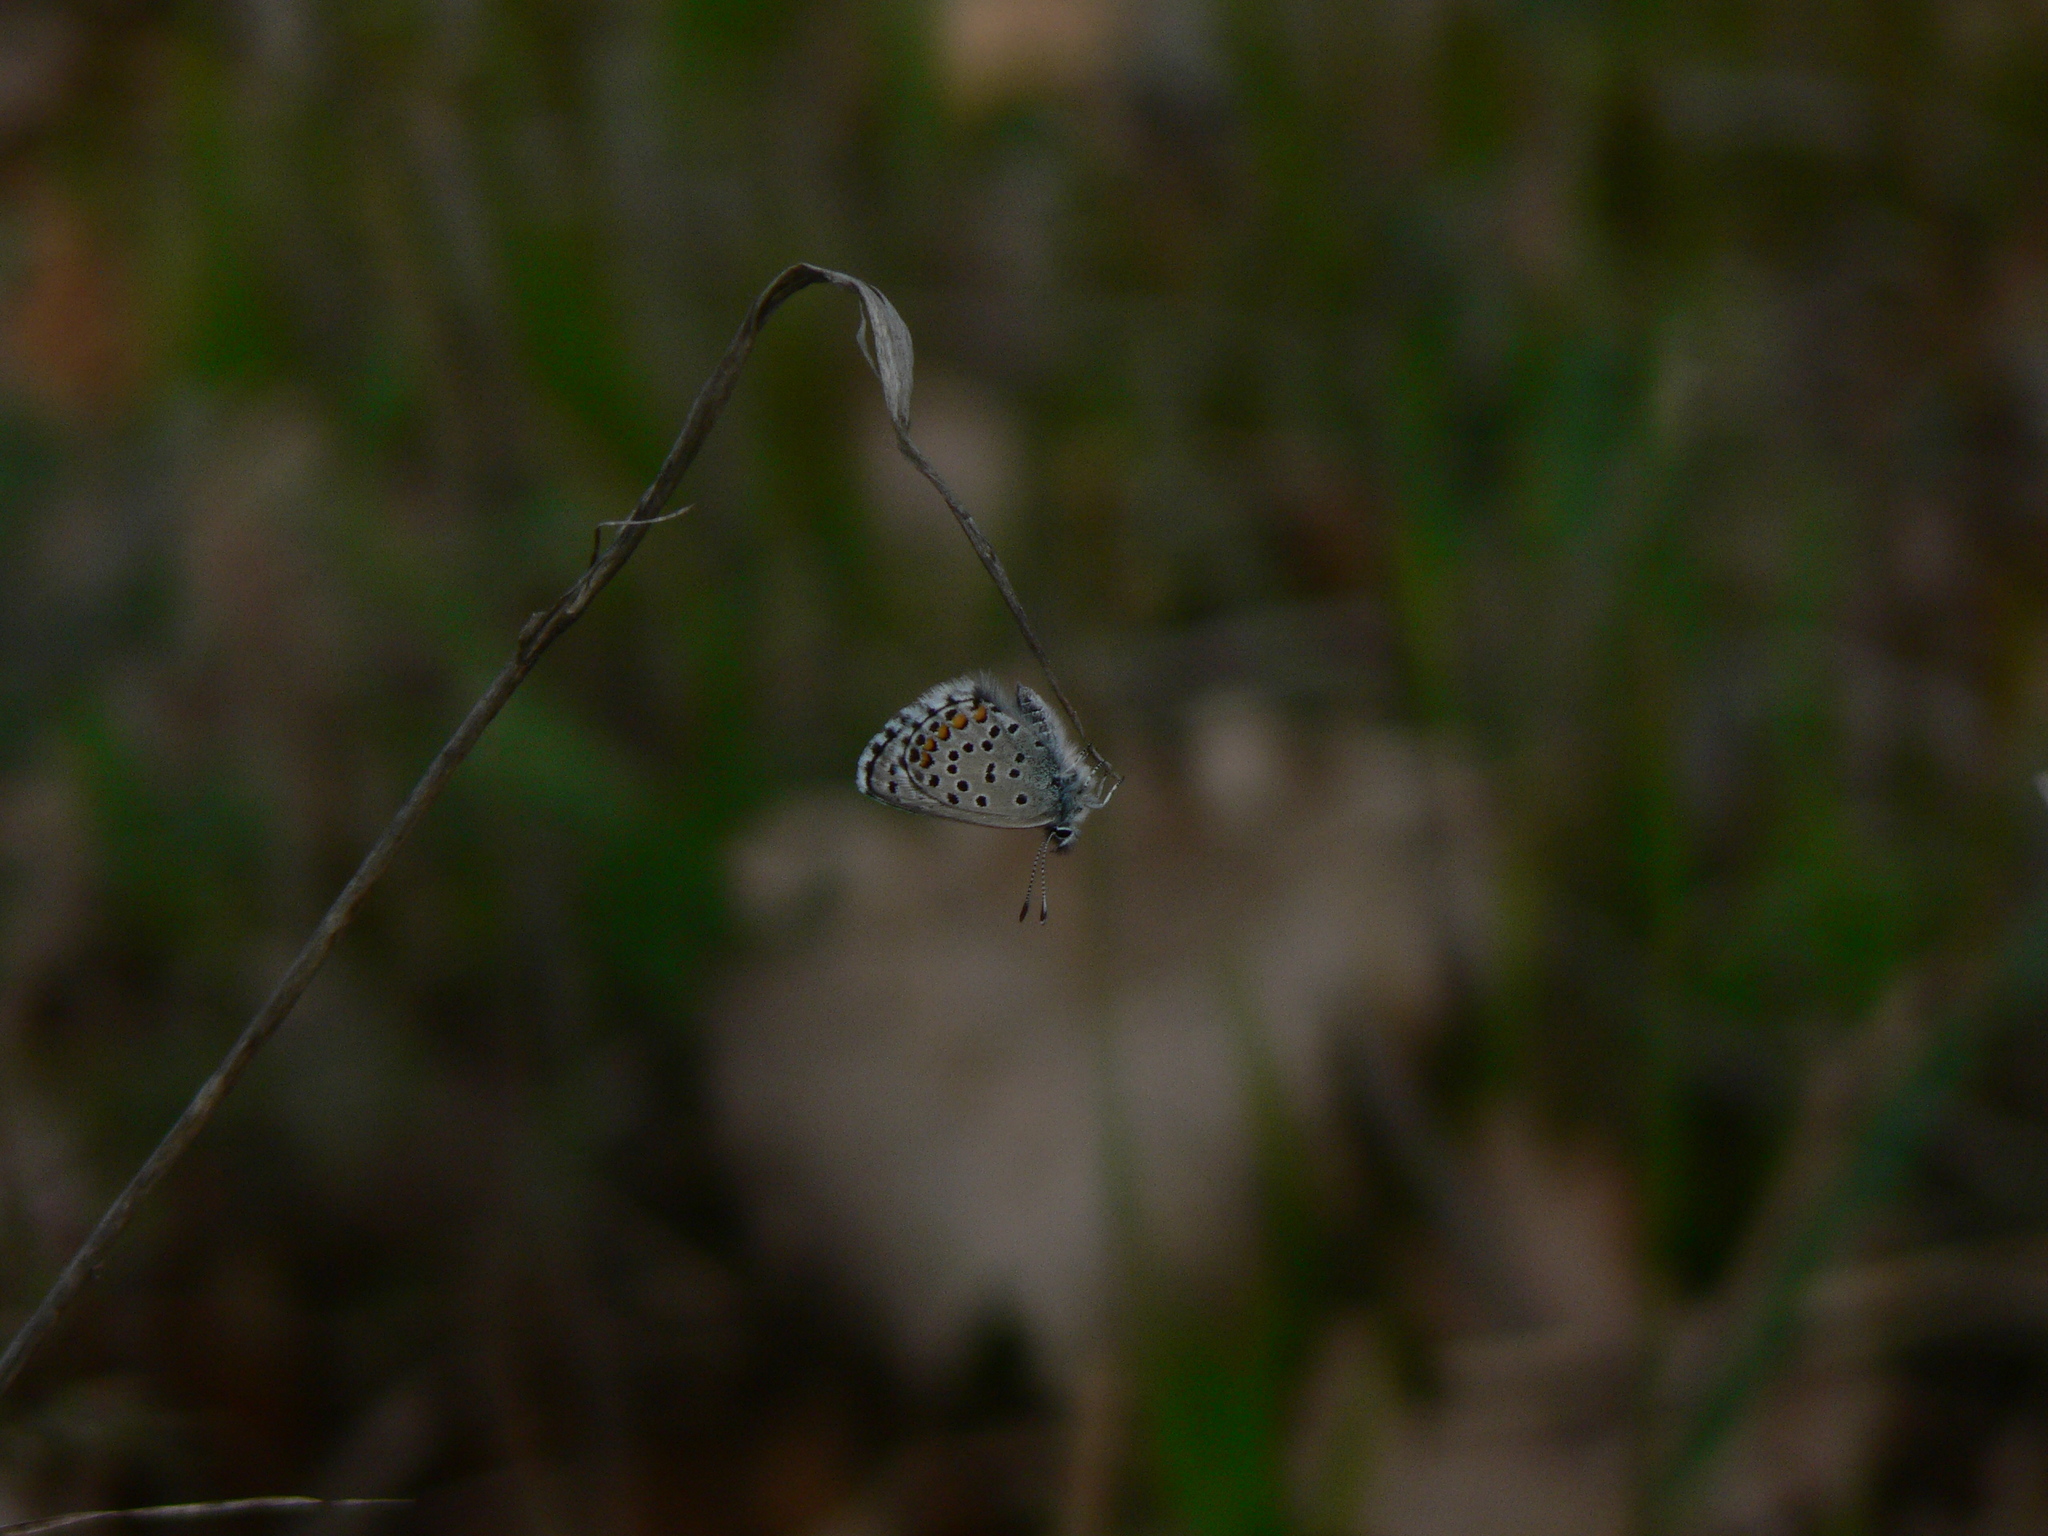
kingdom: Animalia
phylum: Arthropoda
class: Insecta
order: Lepidoptera
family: Lycaenidae
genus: Pseudophilotes
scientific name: Pseudophilotes baton
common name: Baton blue
